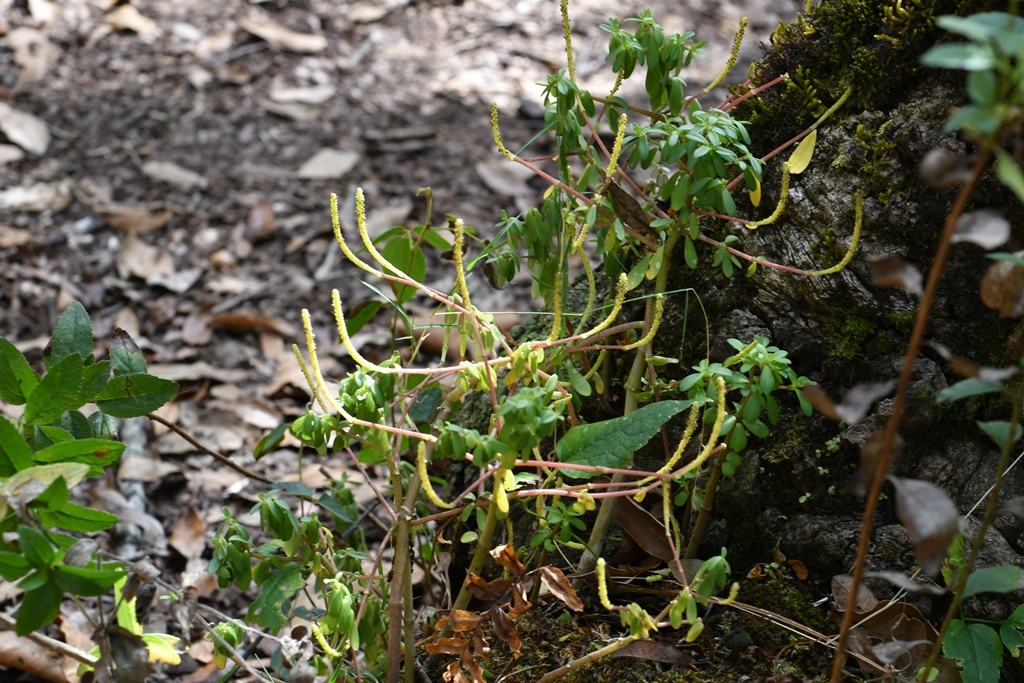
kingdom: Plantae
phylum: Tracheophyta
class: Magnoliopsida
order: Piperales
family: Piperaceae
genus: Peperomia
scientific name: Peperomia leptophylla
